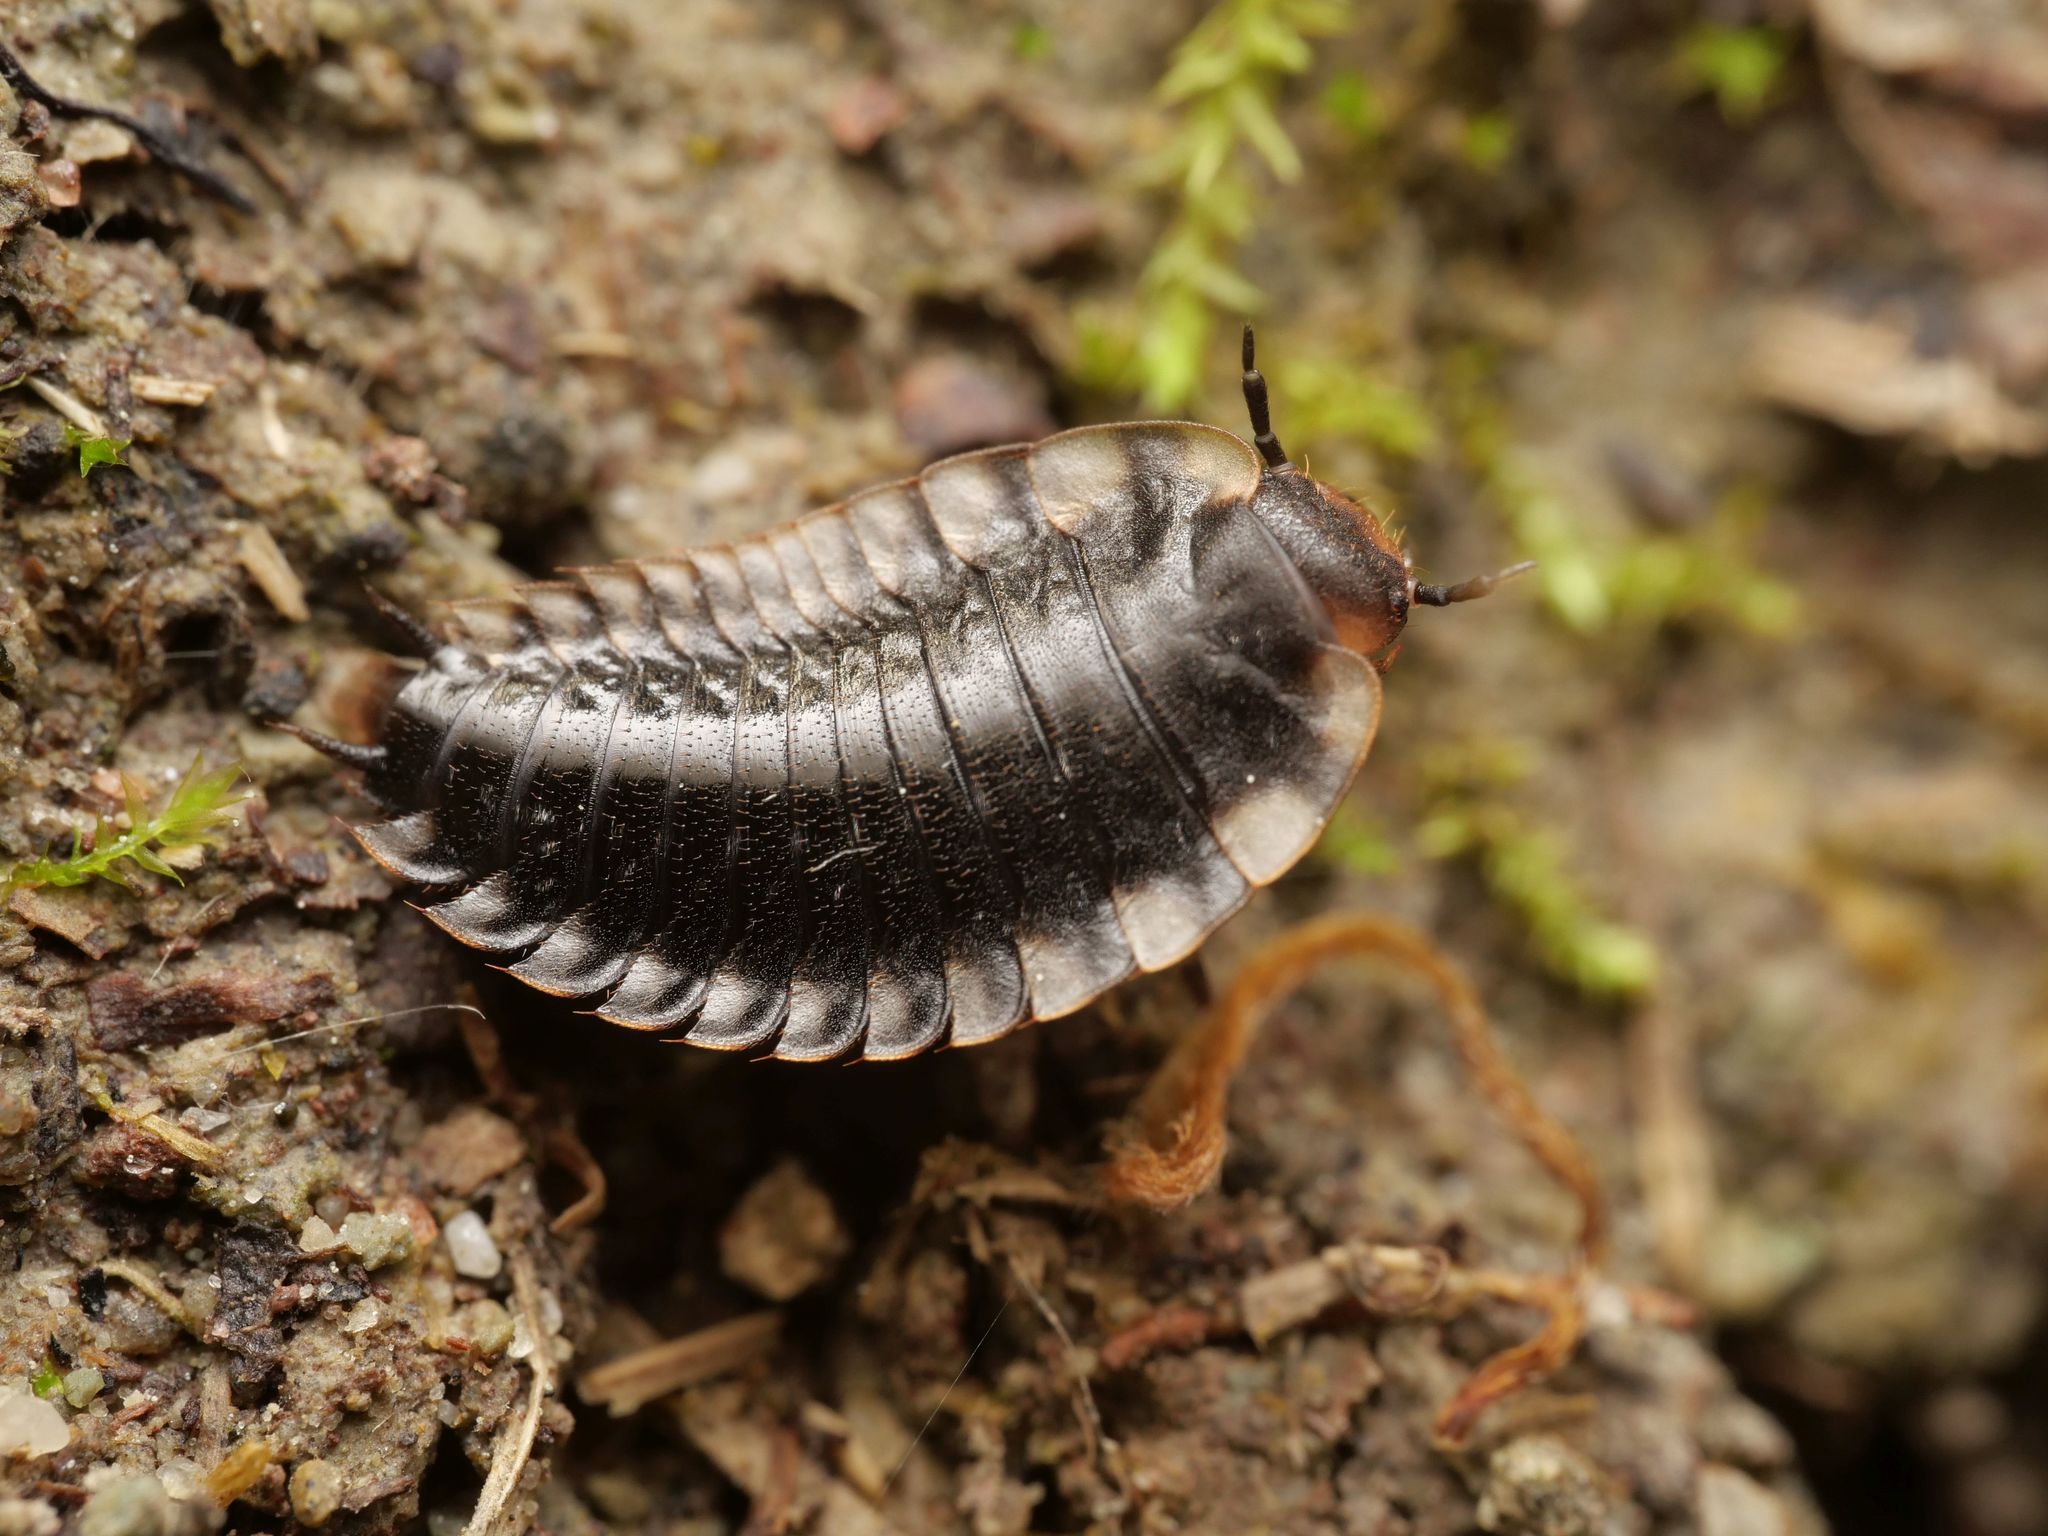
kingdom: Animalia
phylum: Arthropoda
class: Insecta
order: Coleoptera
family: Staphylinidae
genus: Oiceoptoma
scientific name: Oiceoptoma thoracicum
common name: Red-breasted carrion beetle
